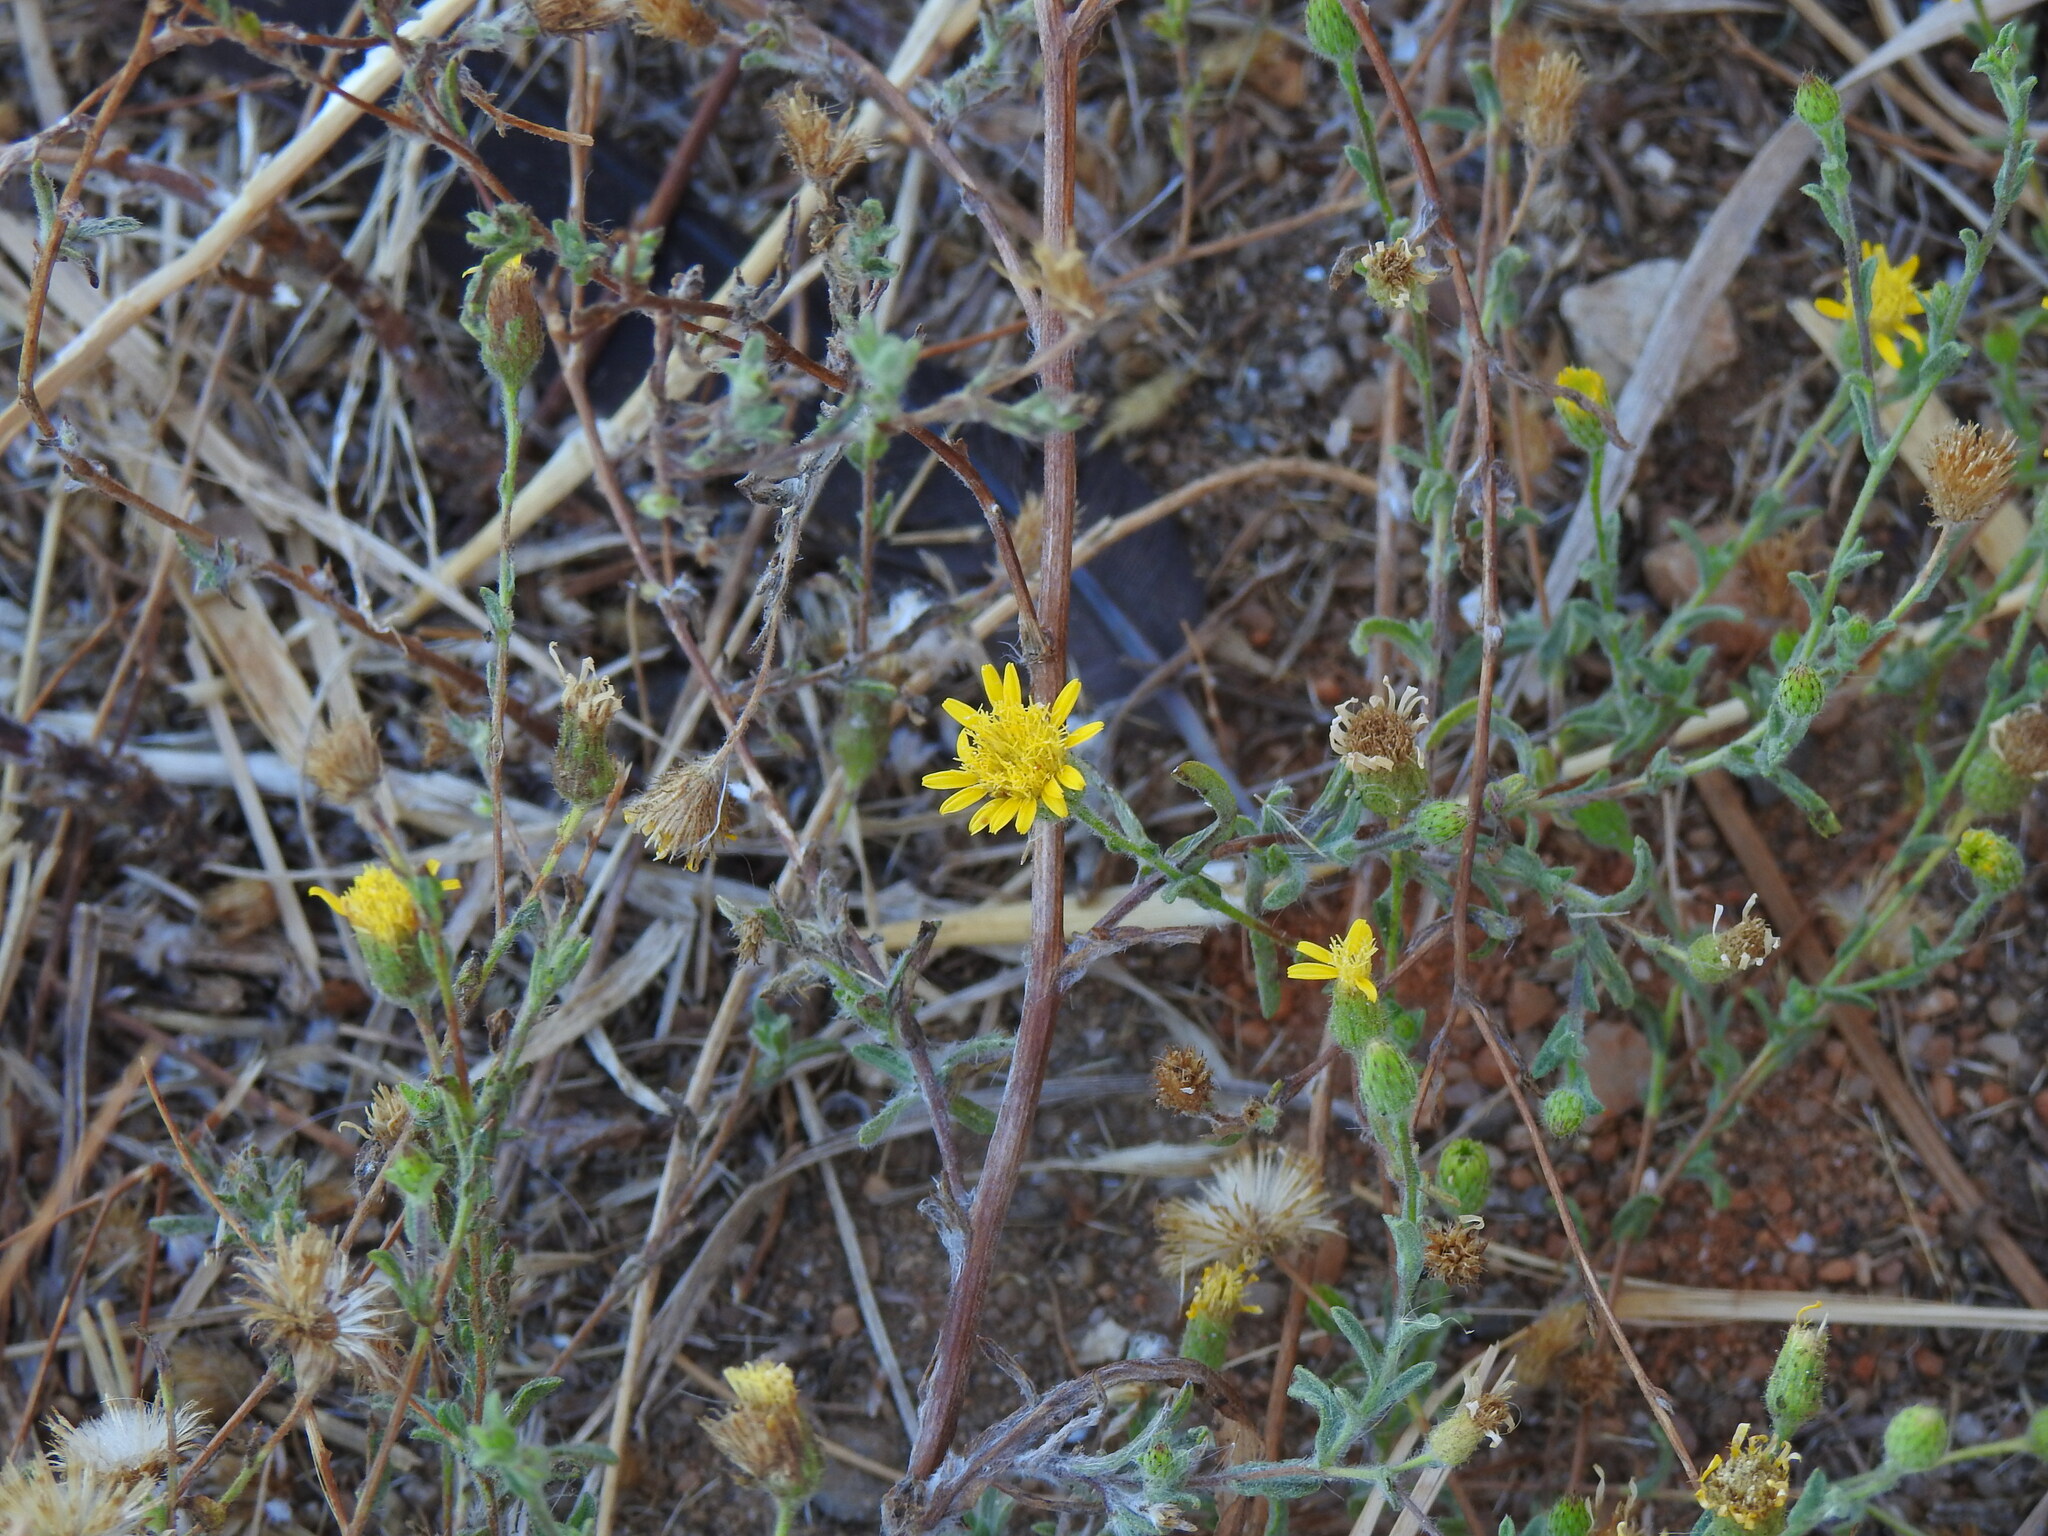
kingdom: Plantae
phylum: Tracheophyta
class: Magnoliopsida
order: Asterales
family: Asteraceae
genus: Pulicaria
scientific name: Pulicaria paludosa
